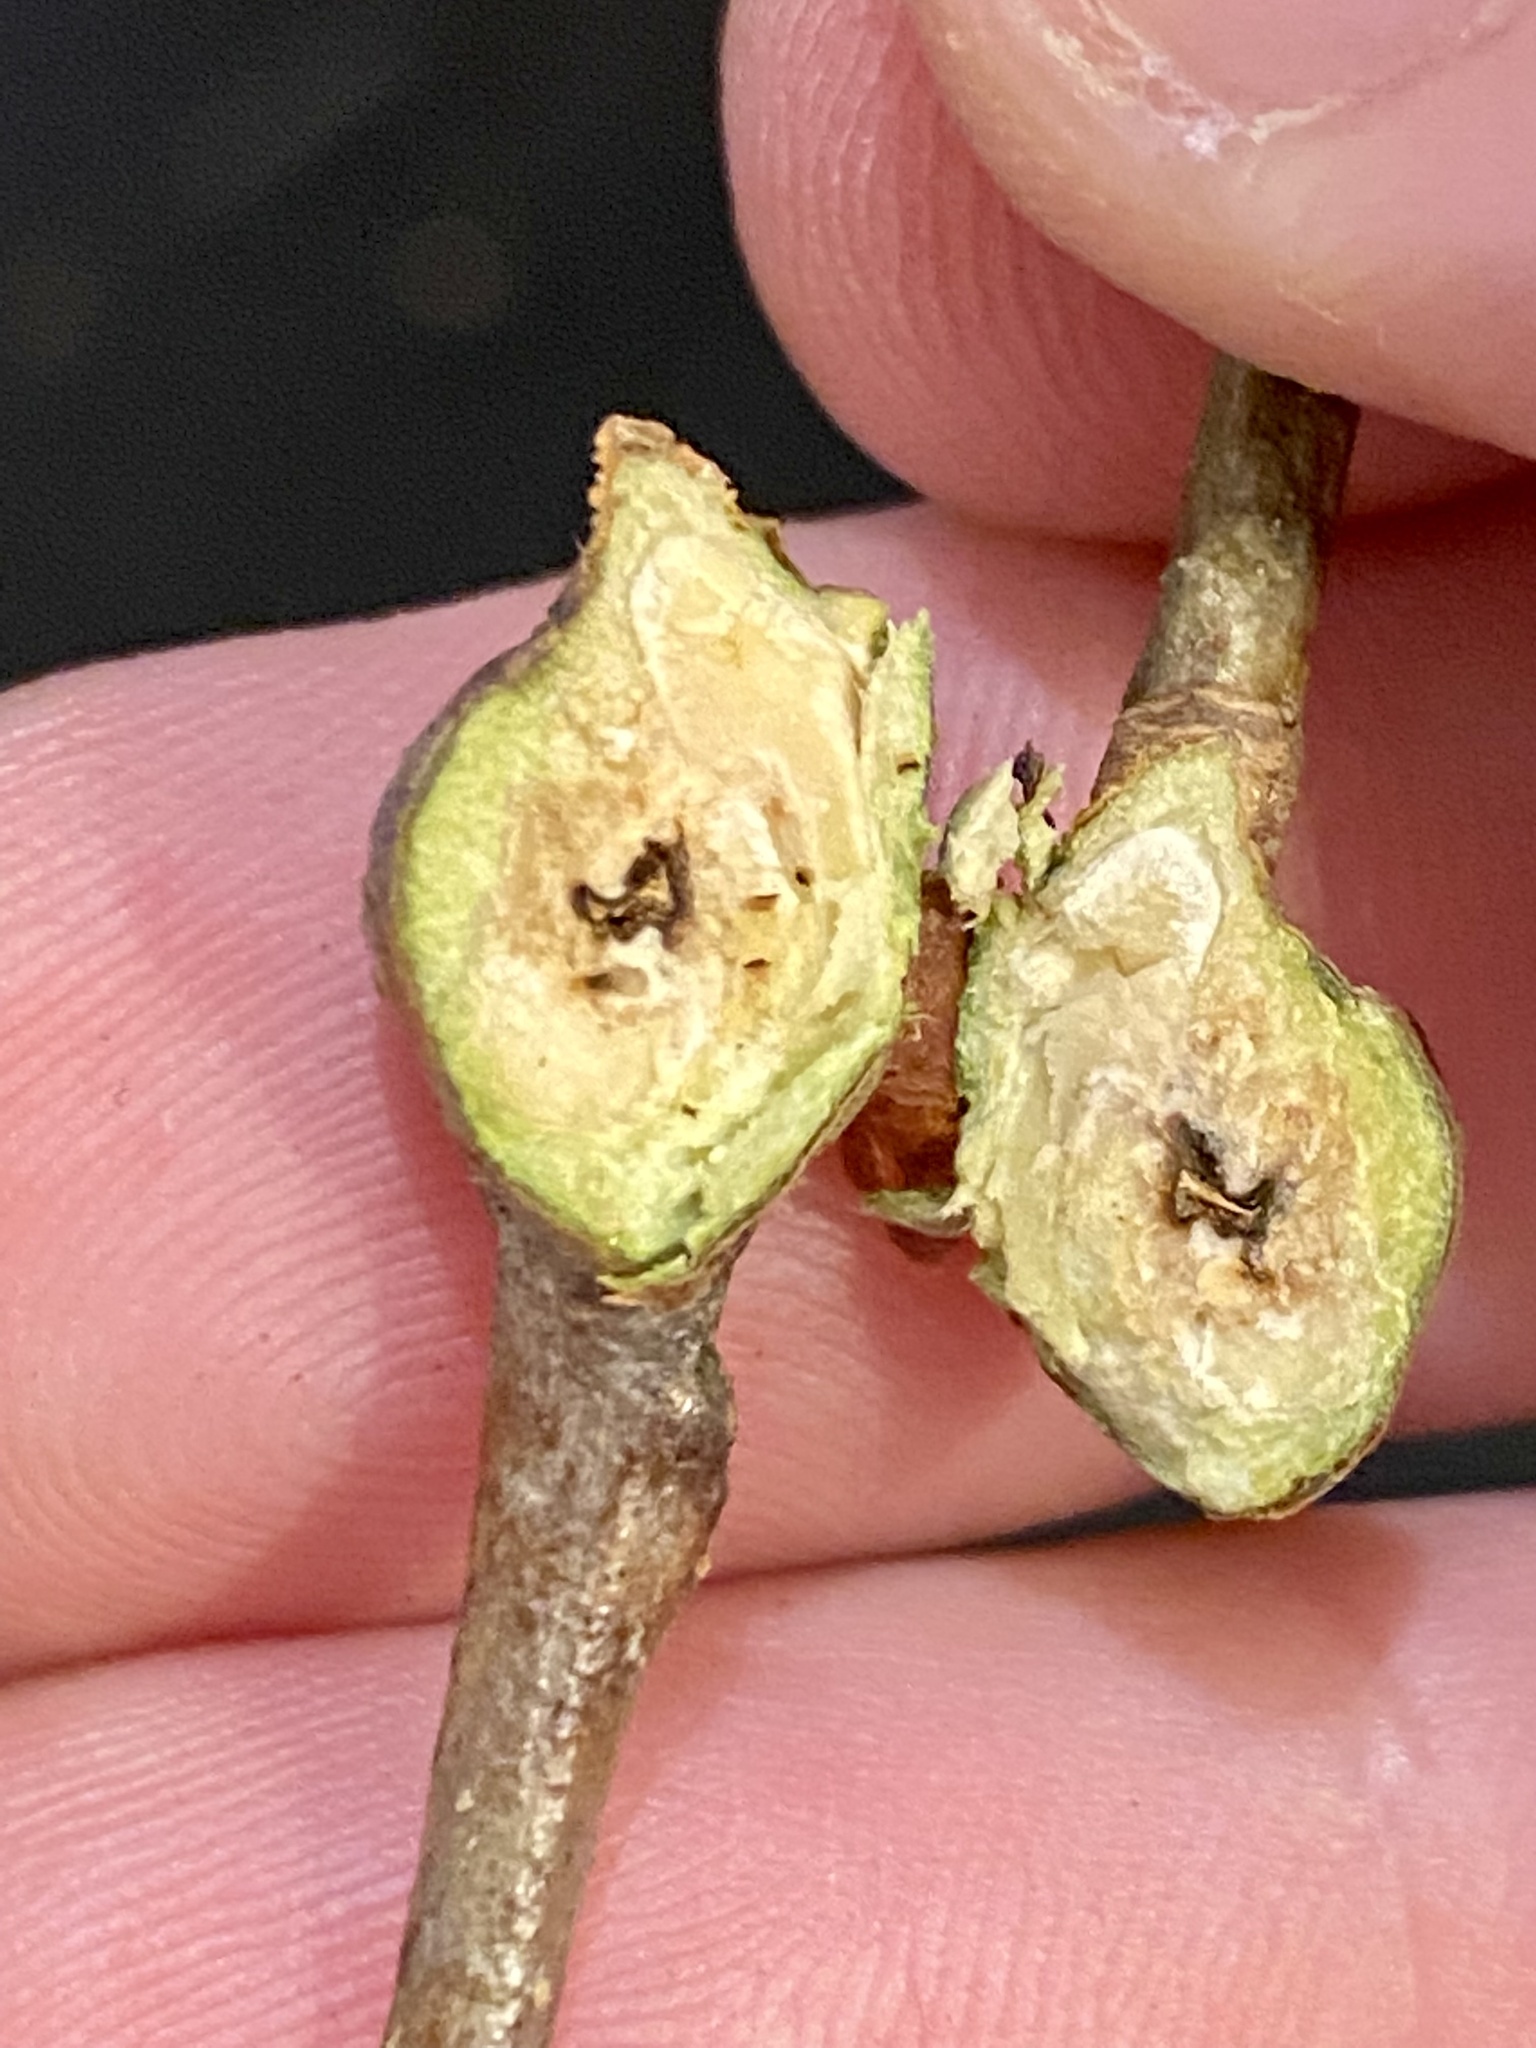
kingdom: Animalia
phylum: Arthropoda
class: Insecta
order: Hymenoptera
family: Cynipidae
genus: Callirhytis
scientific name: Callirhytis clavula
